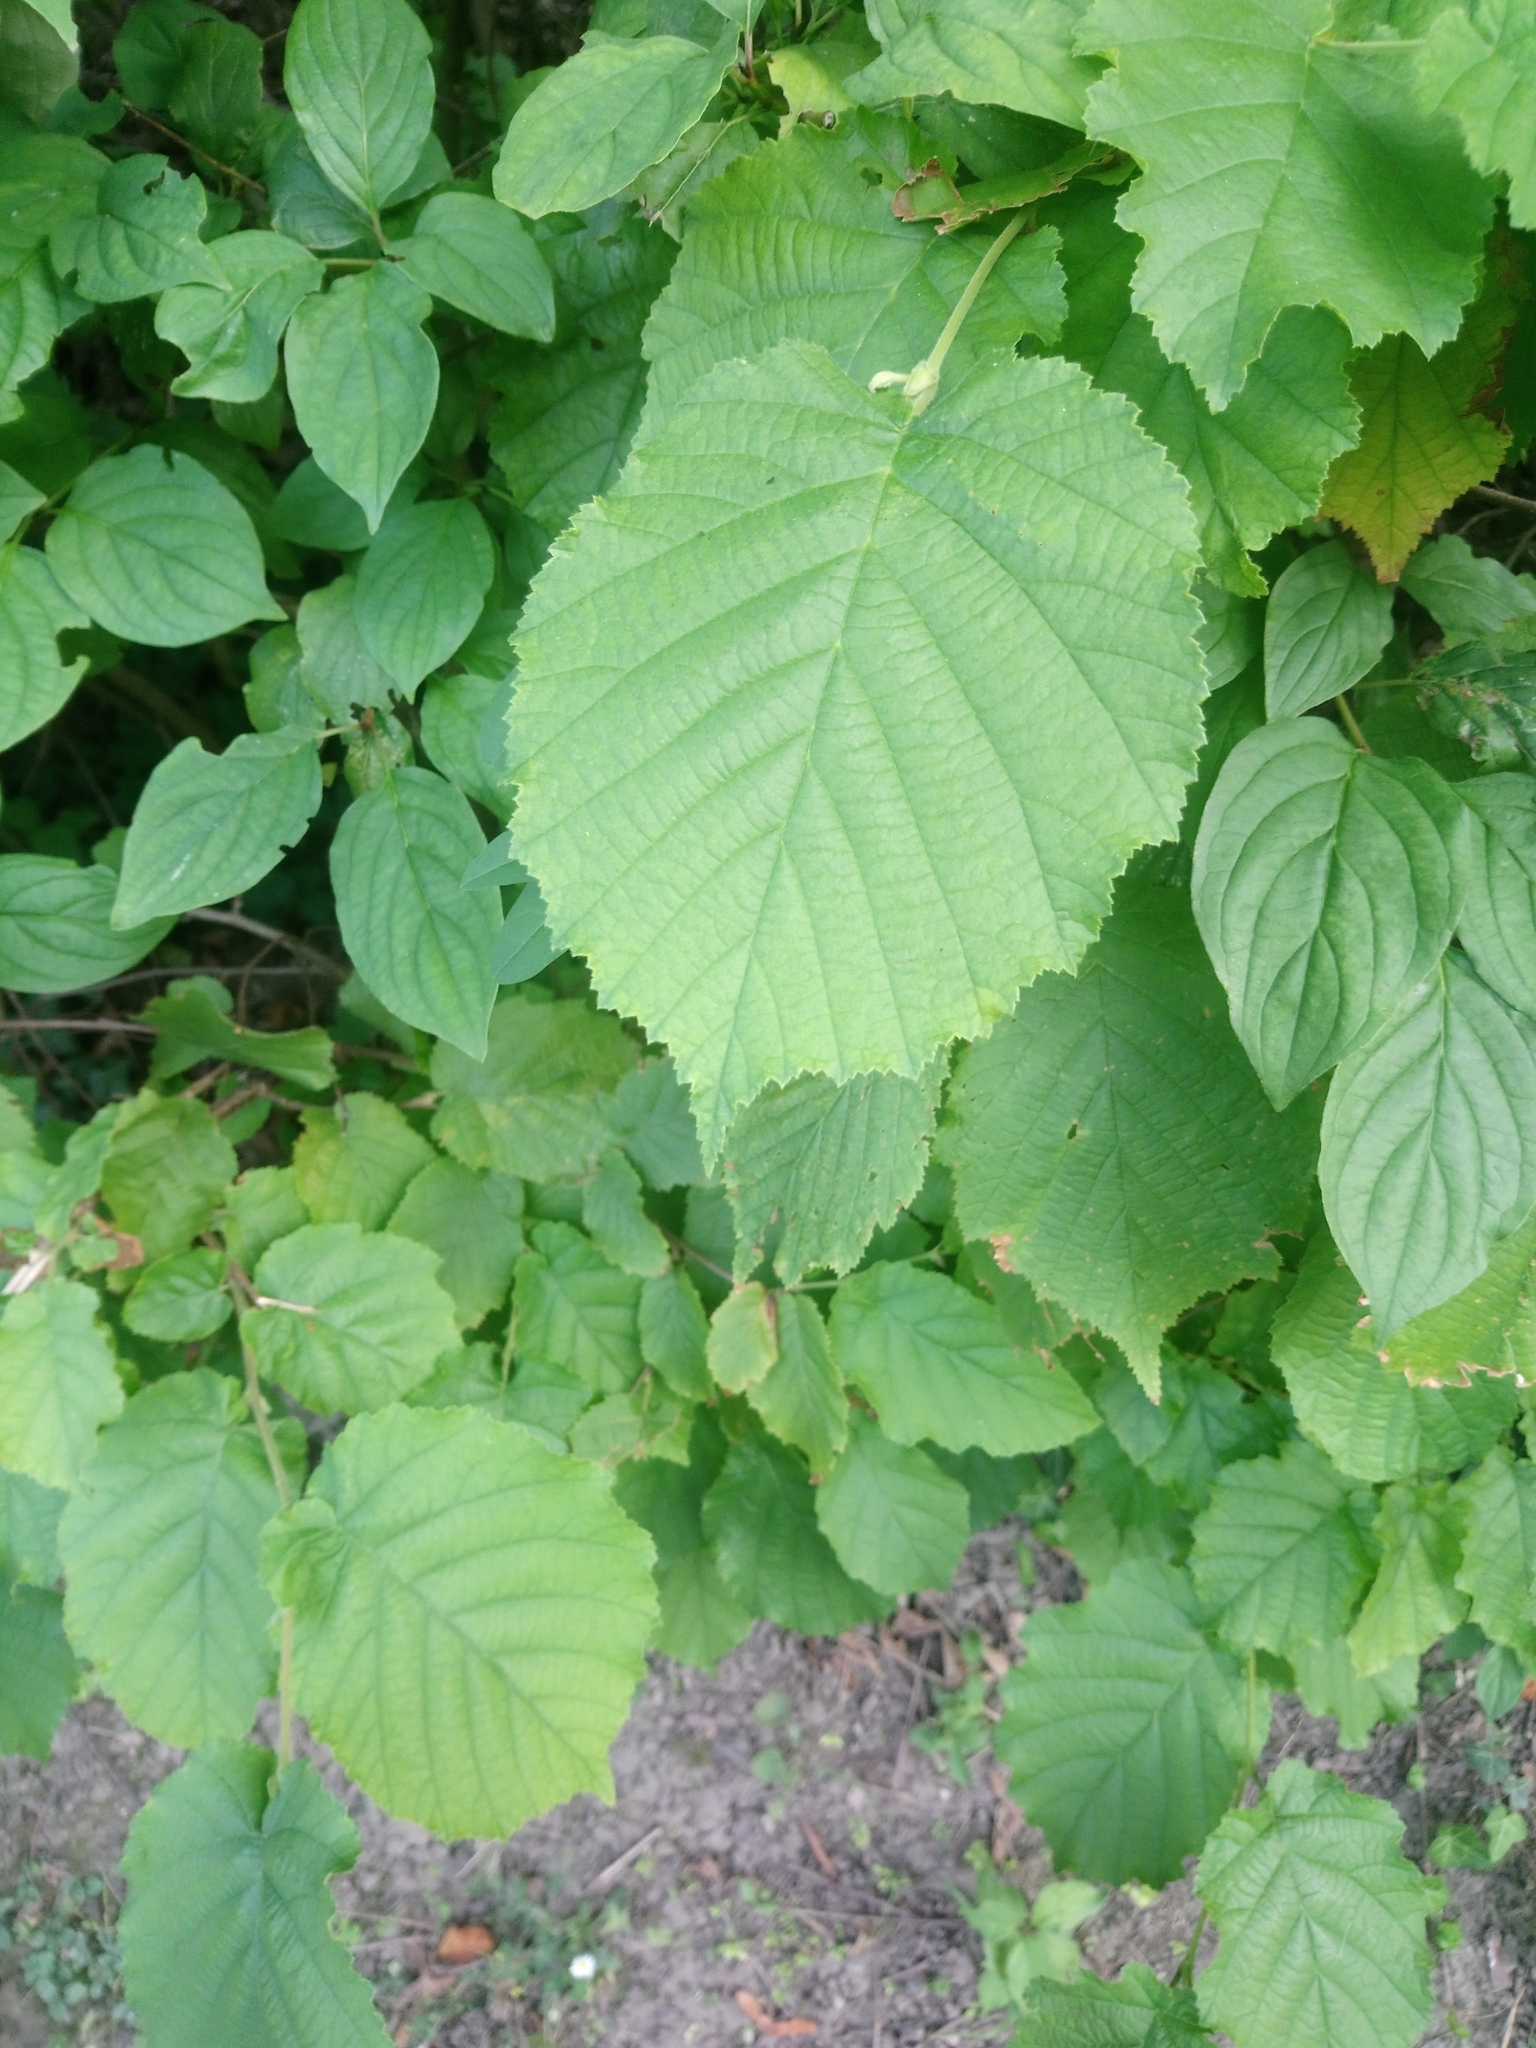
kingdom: Plantae
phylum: Tracheophyta
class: Magnoliopsida
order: Fagales
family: Betulaceae
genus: Corylus
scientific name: Corylus avellana
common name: European hazel
